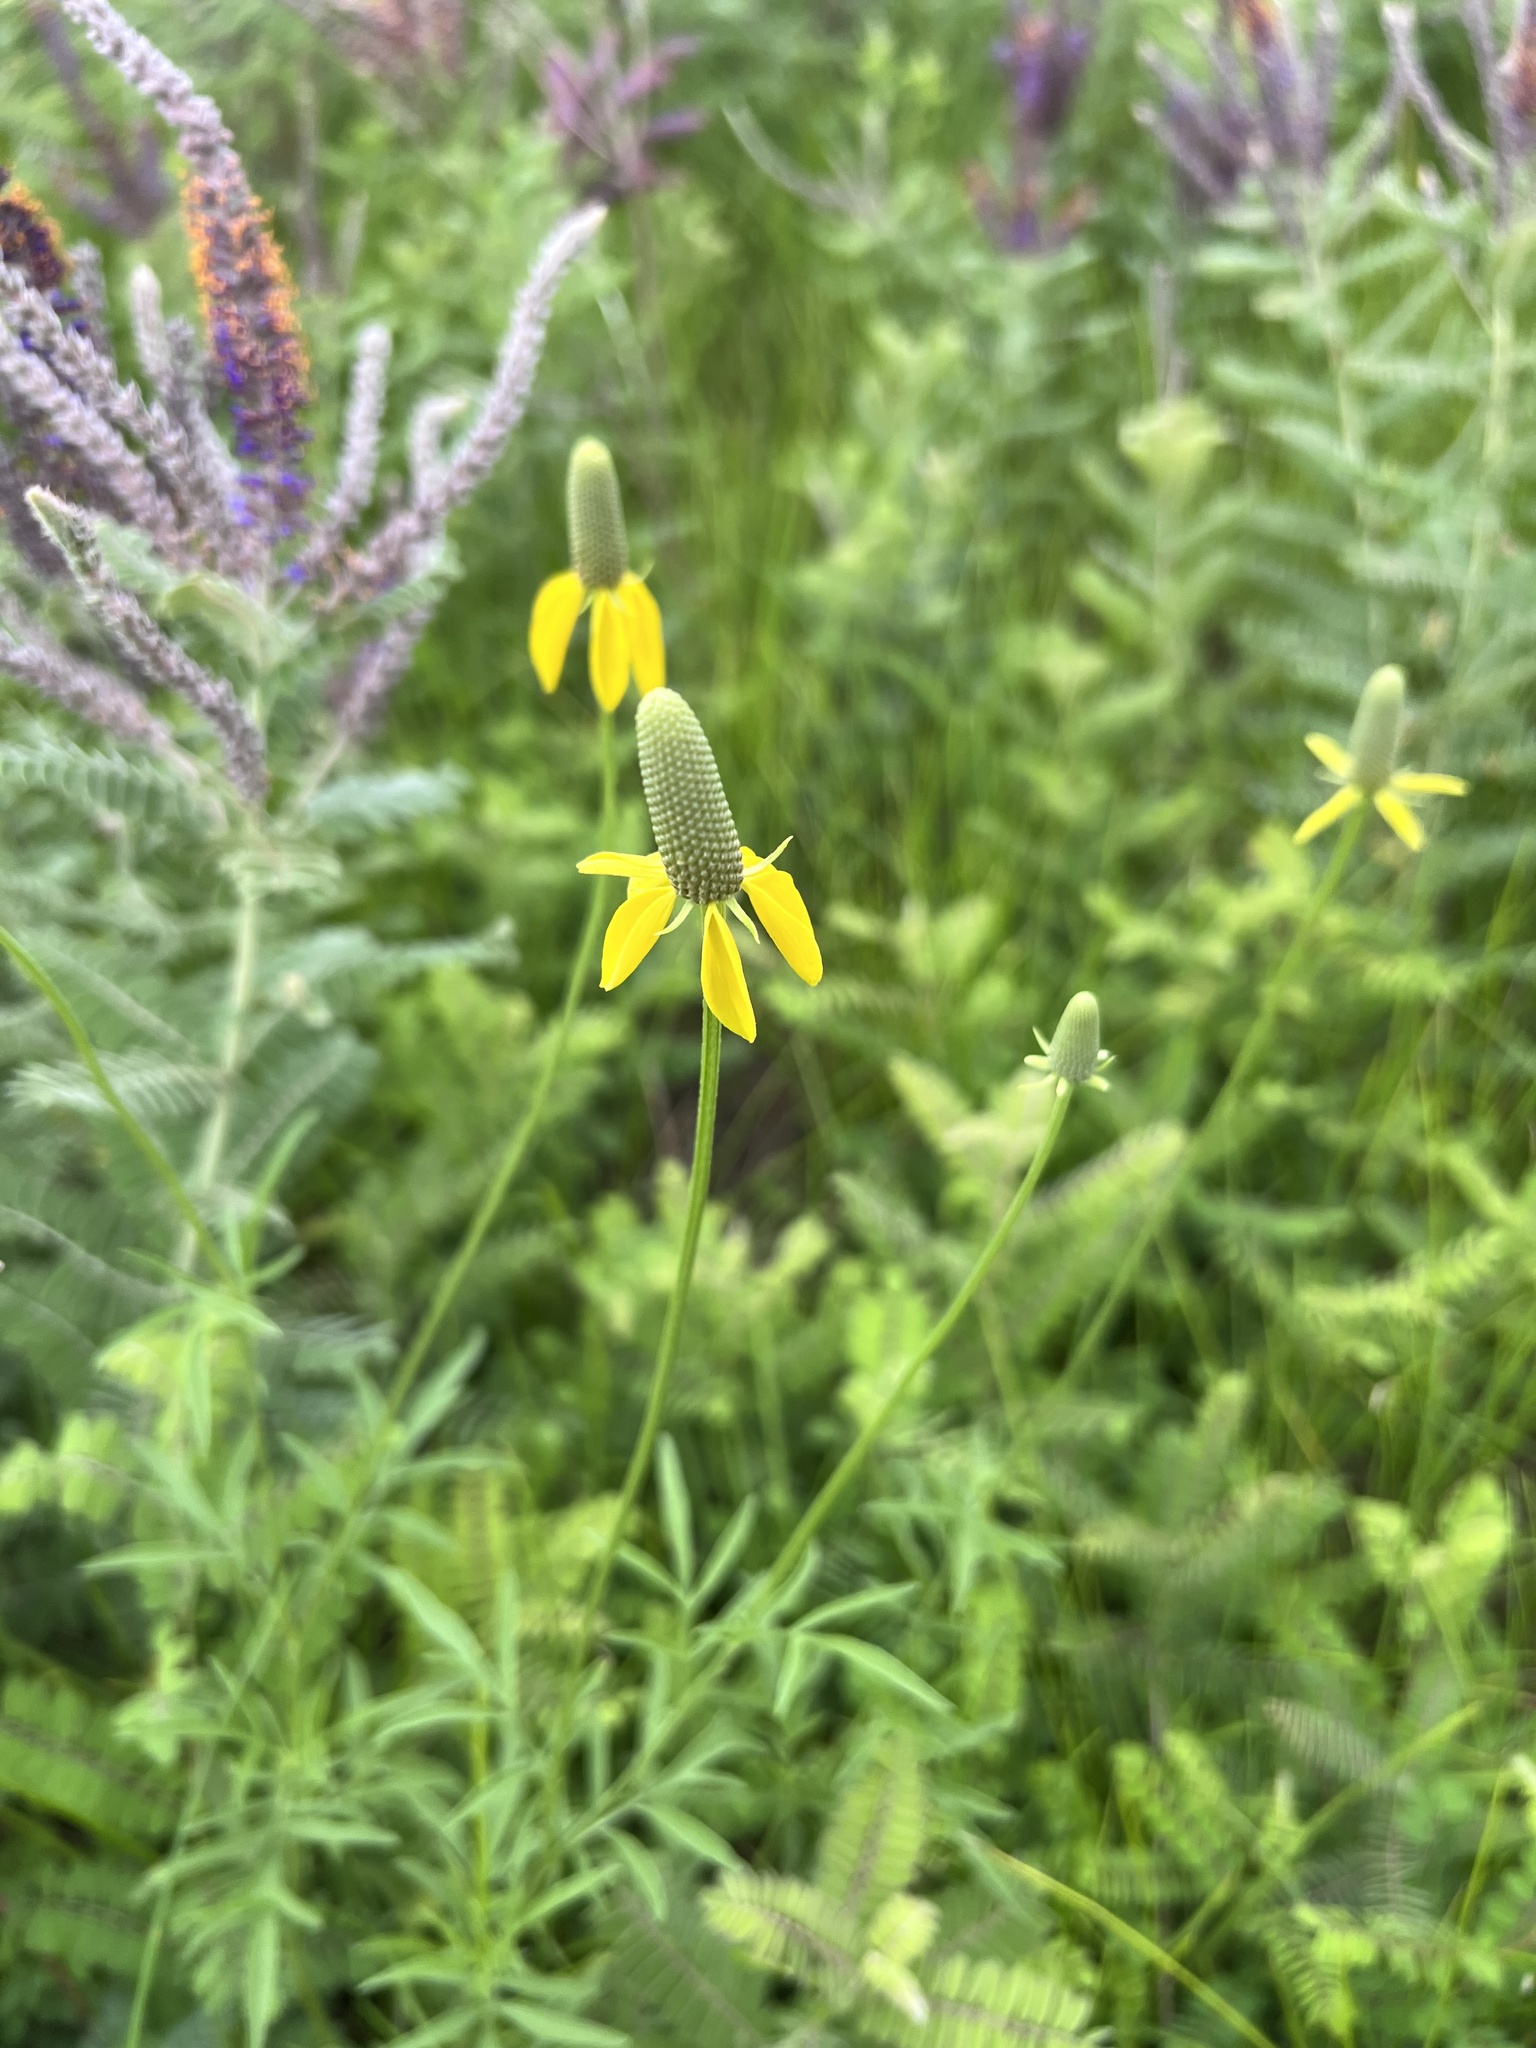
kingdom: Plantae
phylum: Tracheophyta
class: Magnoliopsida
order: Asterales
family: Asteraceae
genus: Ratibida
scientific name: Ratibida columnifera
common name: Prairie coneflower
